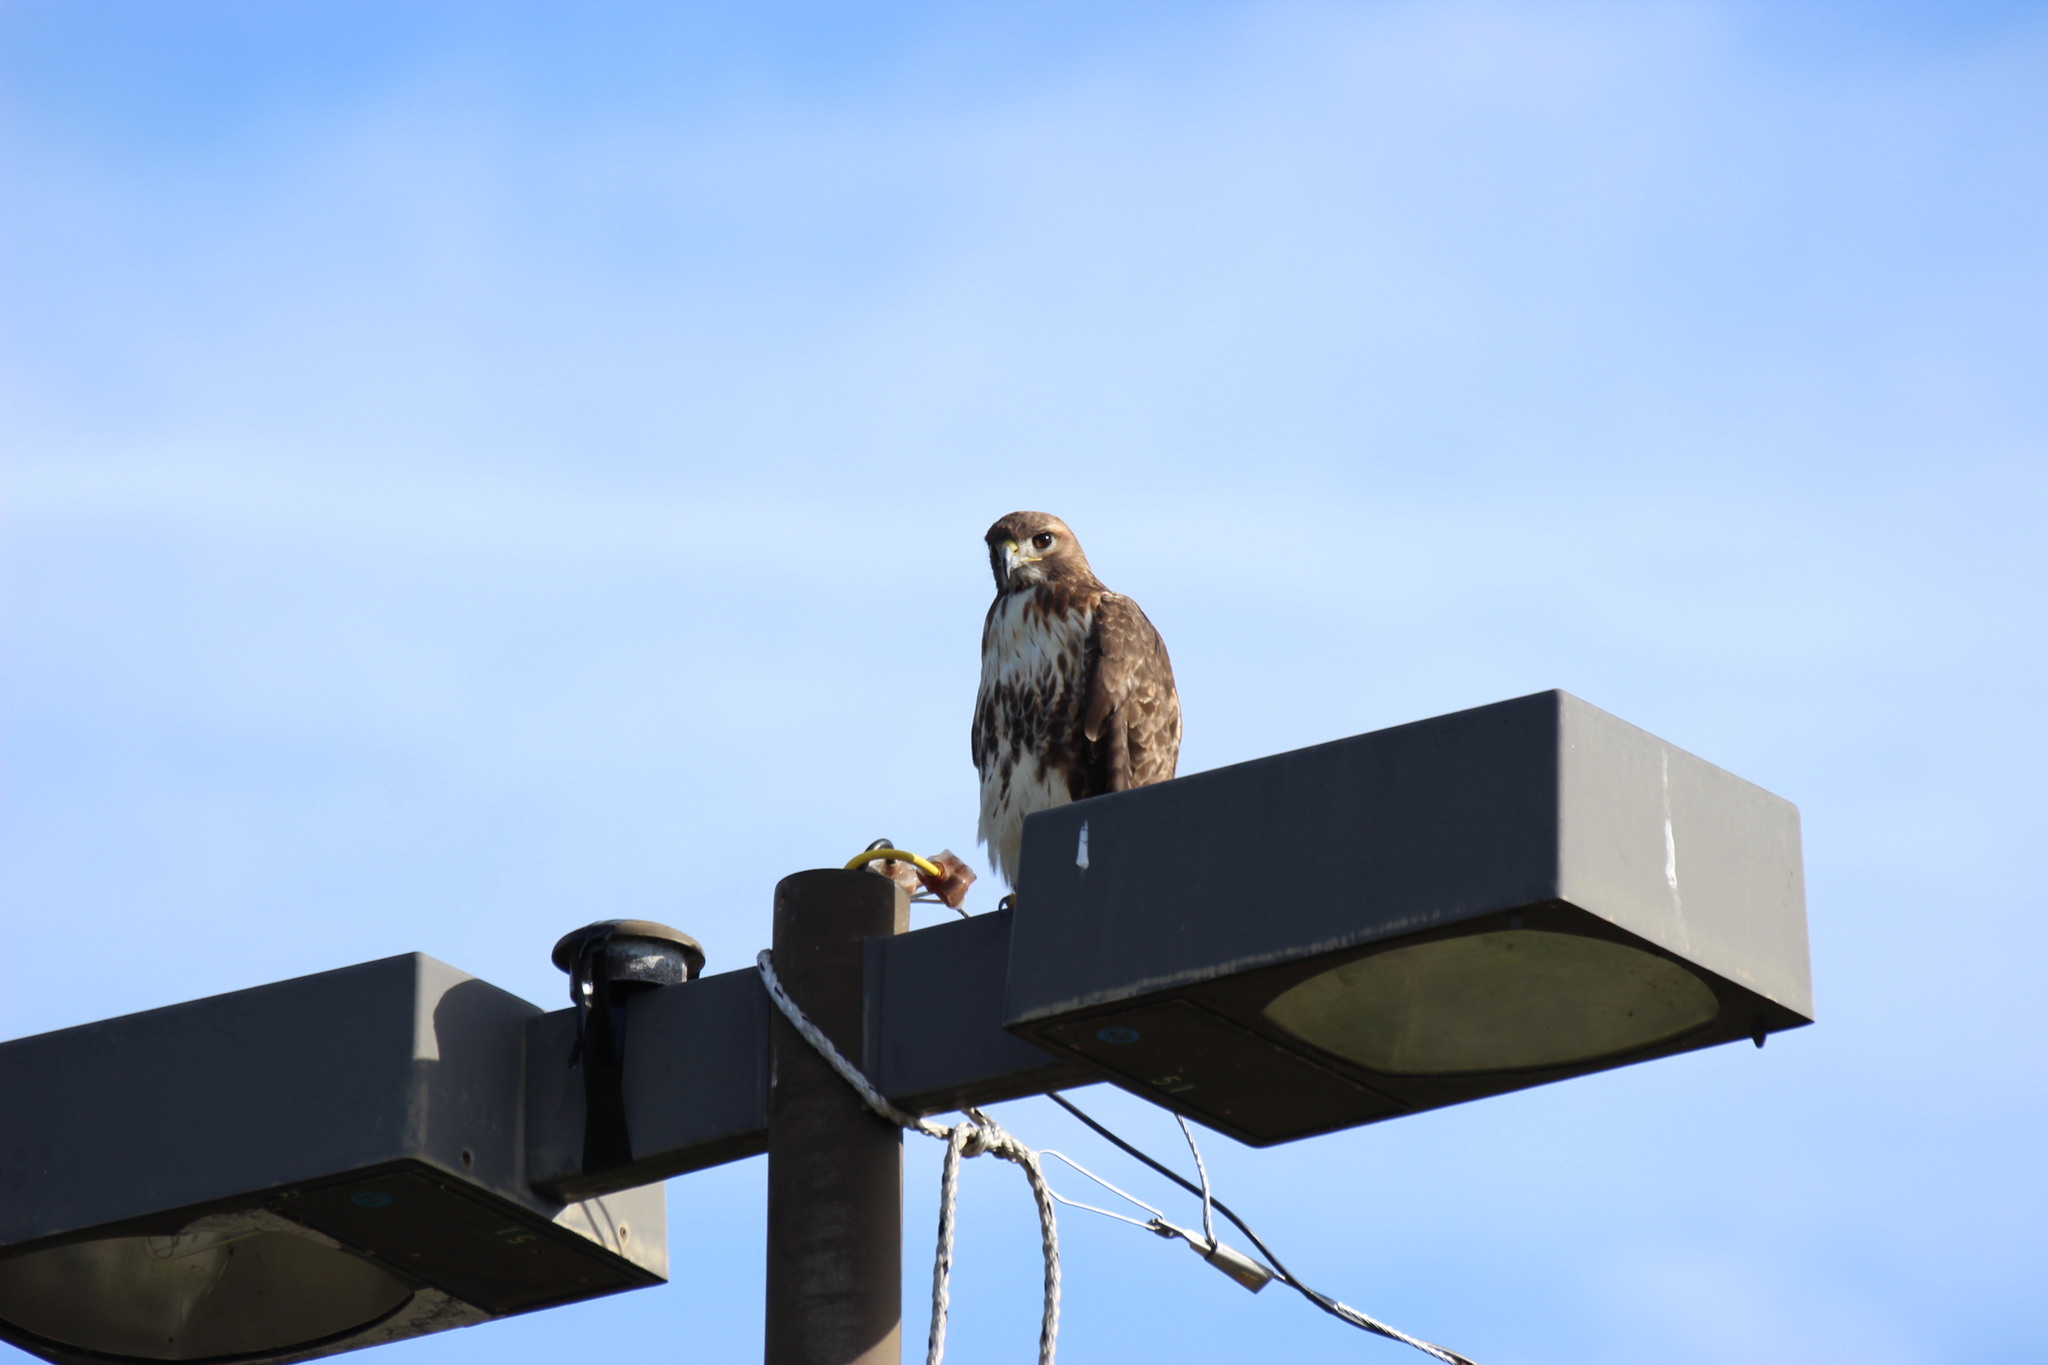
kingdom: Animalia
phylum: Chordata
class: Aves
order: Accipitriformes
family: Accipitridae
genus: Buteo
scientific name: Buteo jamaicensis
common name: Red-tailed hawk
